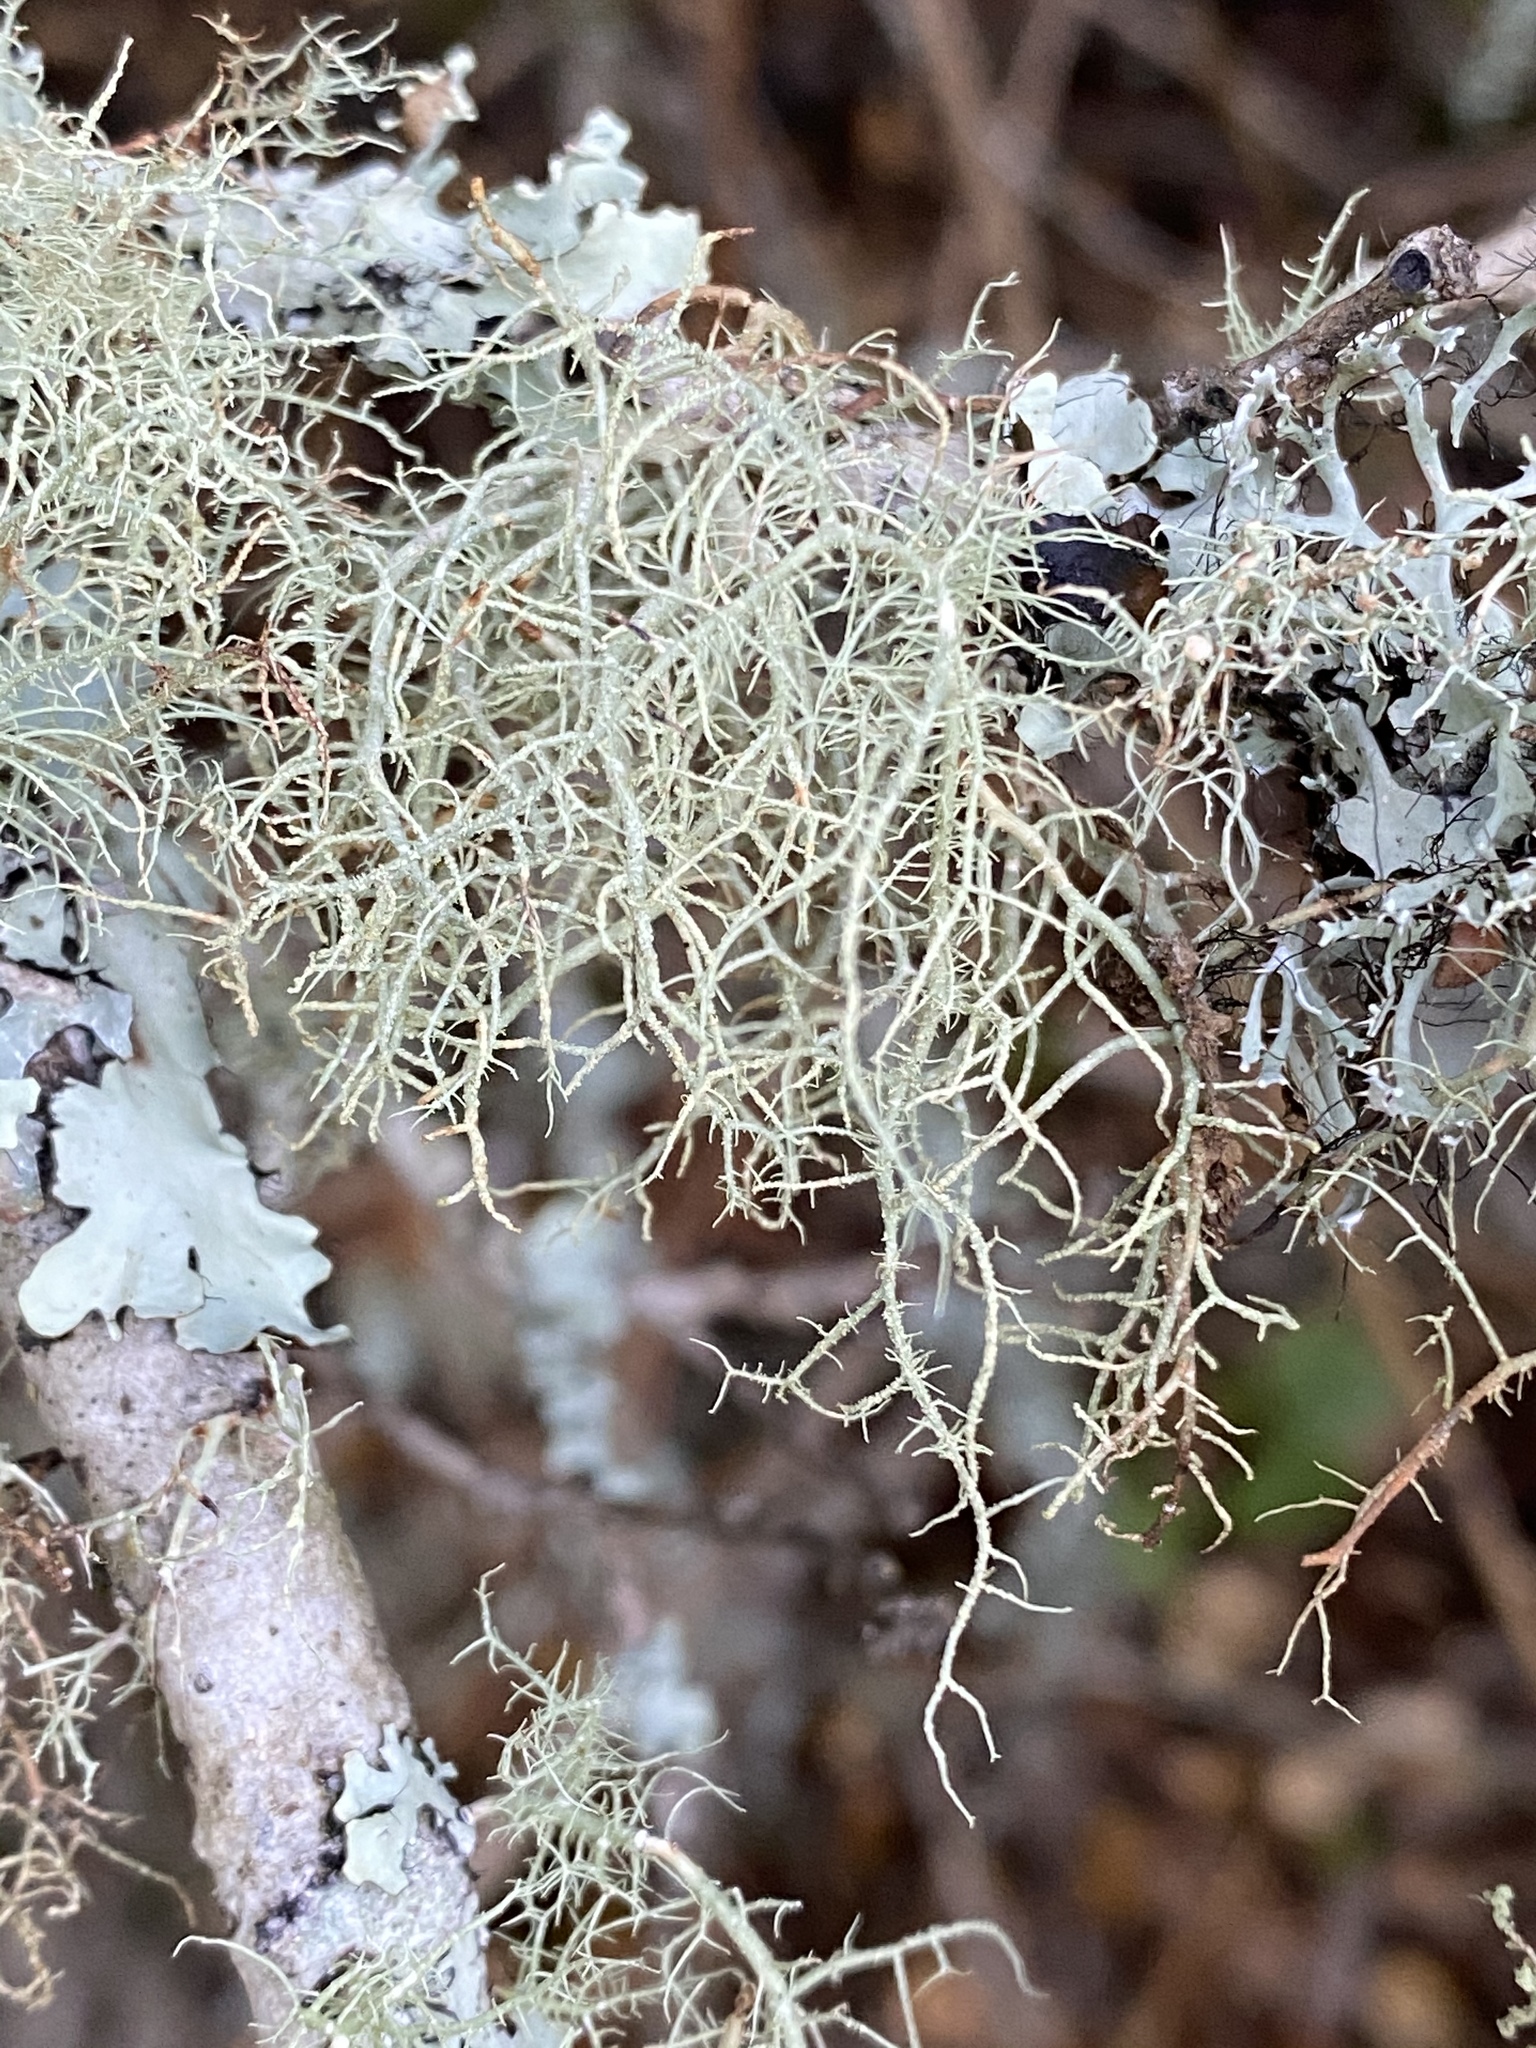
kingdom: Fungi
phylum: Ascomycota
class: Lecanoromycetes
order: Lecanorales
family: Parmeliaceae
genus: Usnea
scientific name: Usnea rubicunda
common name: Red beard lichen
